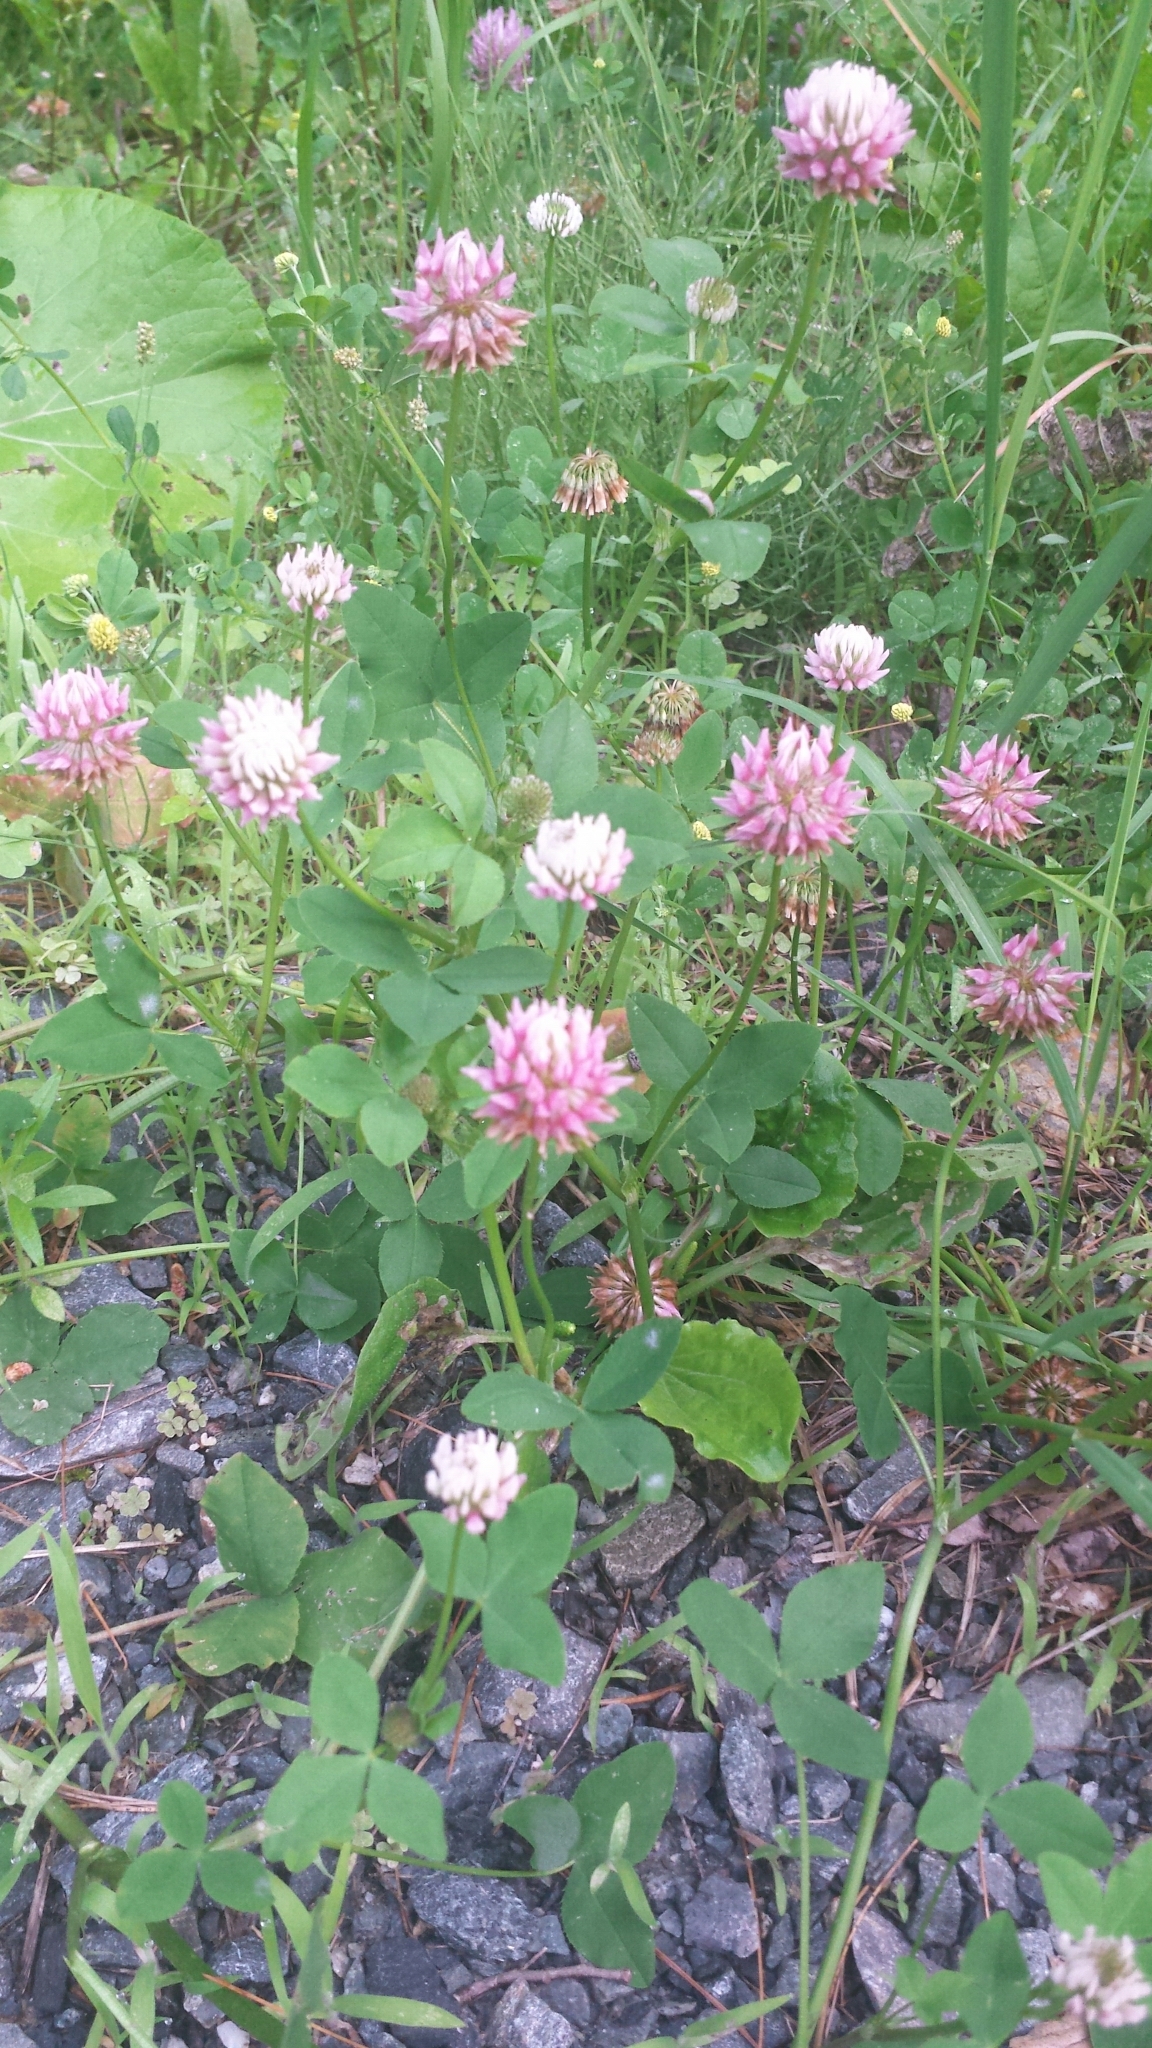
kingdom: Plantae
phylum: Tracheophyta
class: Magnoliopsida
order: Fabales
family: Fabaceae
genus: Trifolium
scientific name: Trifolium hybridum
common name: Alsike clover
